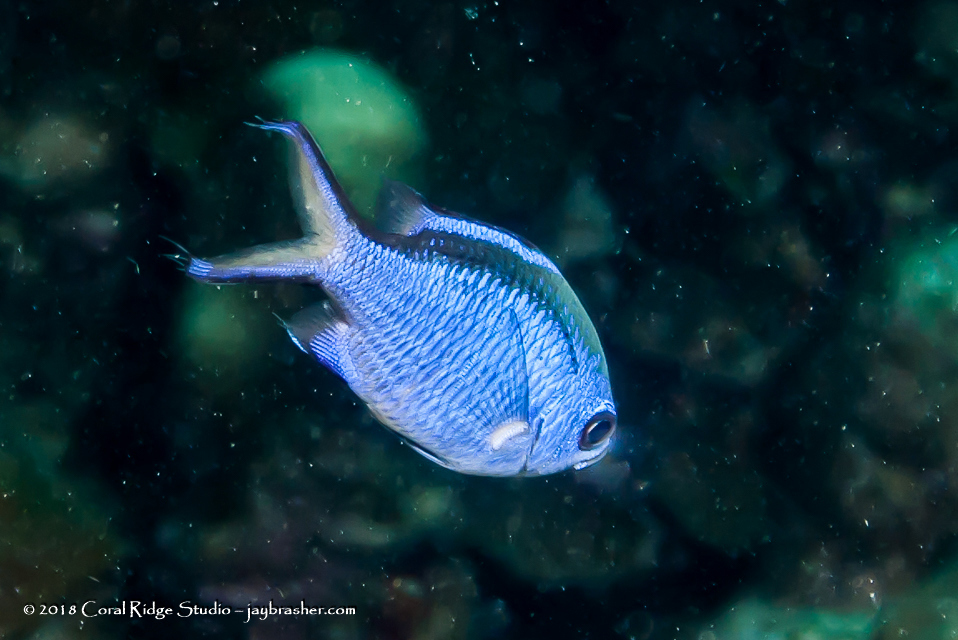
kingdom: Animalia
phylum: Chordata
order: Perciformes
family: Pomacentridae
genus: Chromis
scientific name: Chromis cyanea
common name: Blue chromis
